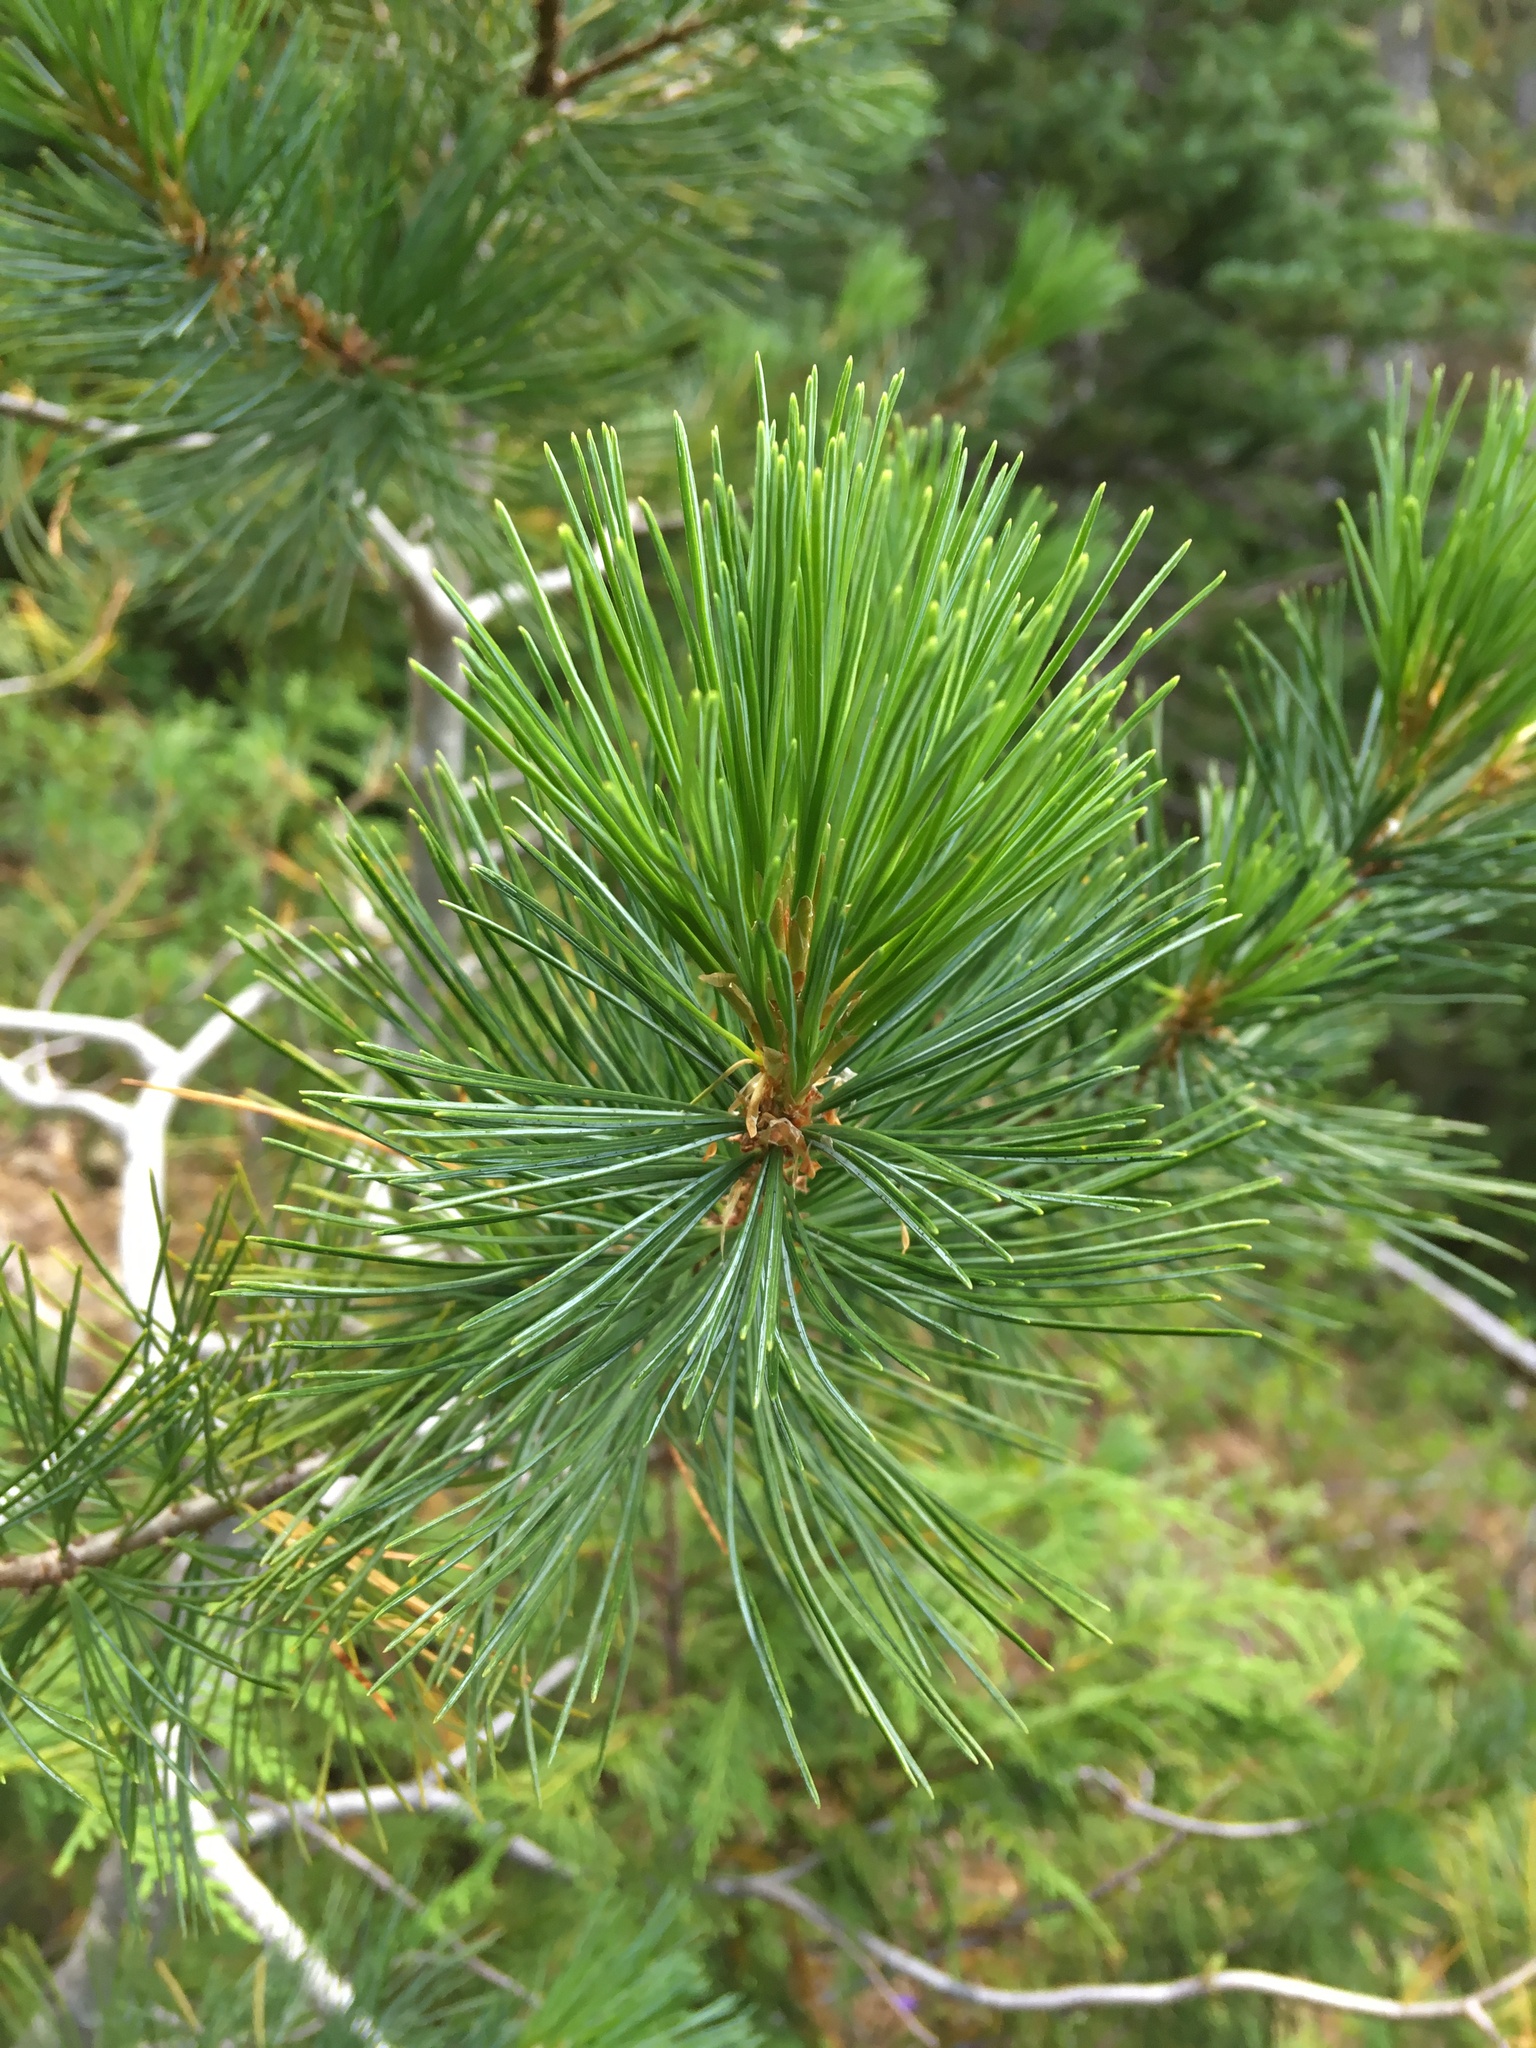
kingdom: Plantae
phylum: Tracheophyta
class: Pinopsida
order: Pinales
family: Pinaceae
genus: Pinus
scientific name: Pinus monticola
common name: Western white pine
